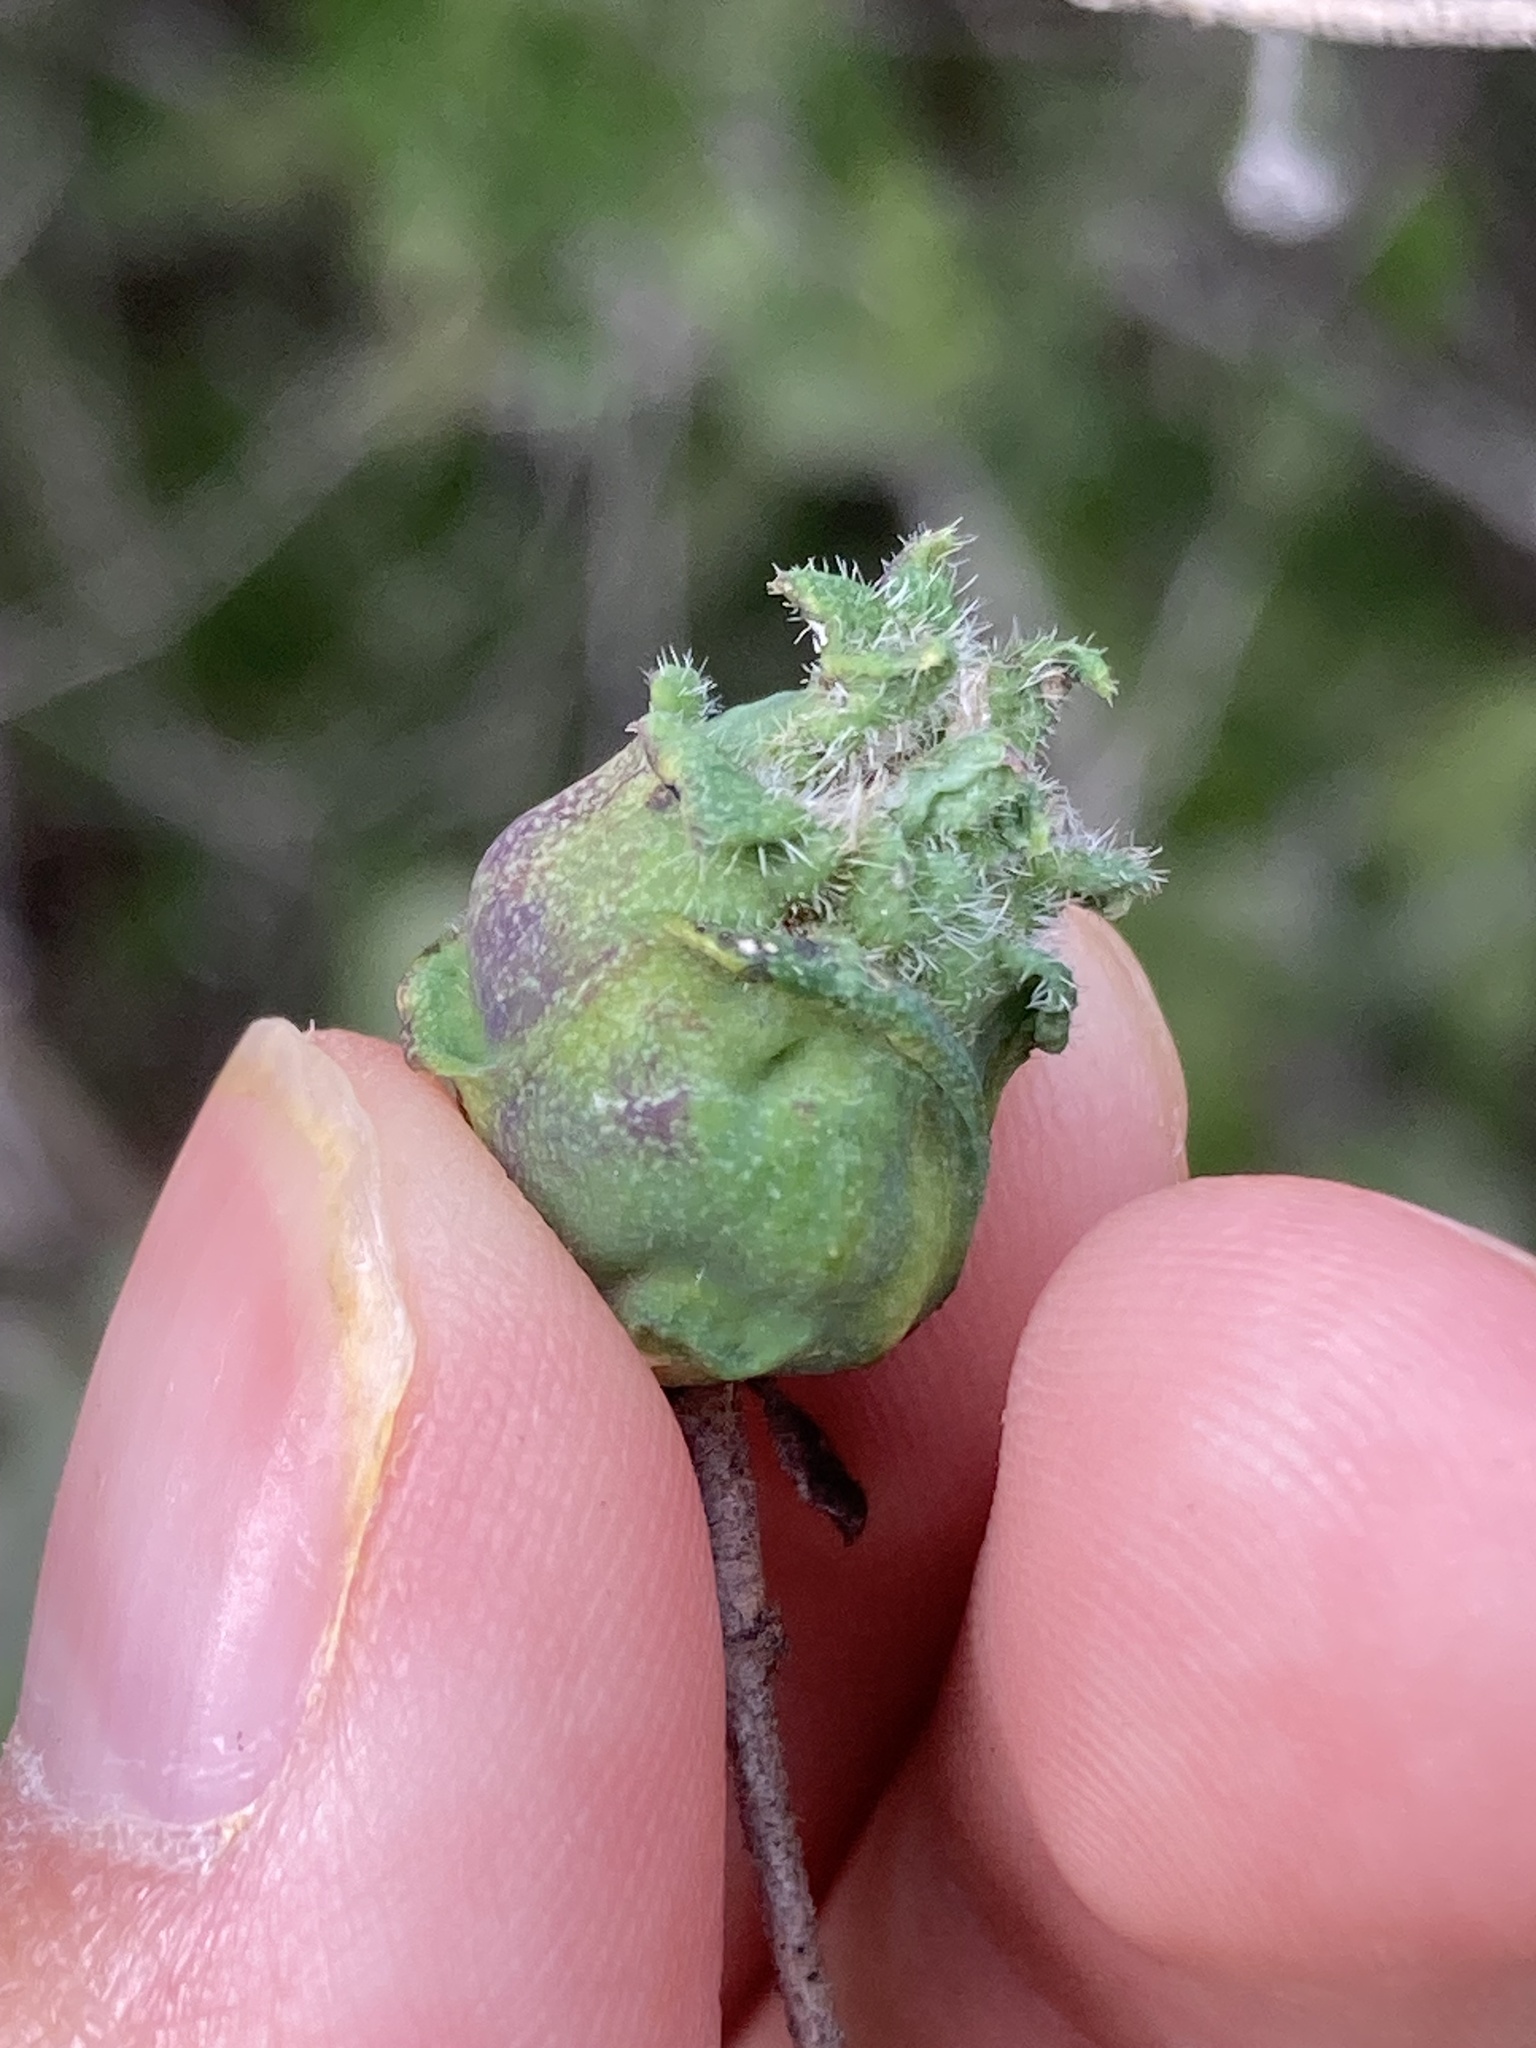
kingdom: Animalia
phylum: Arthropoda
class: Insecta
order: Diptera
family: Cecidomyiidae
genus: Lonicerae
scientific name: Lonicerae
